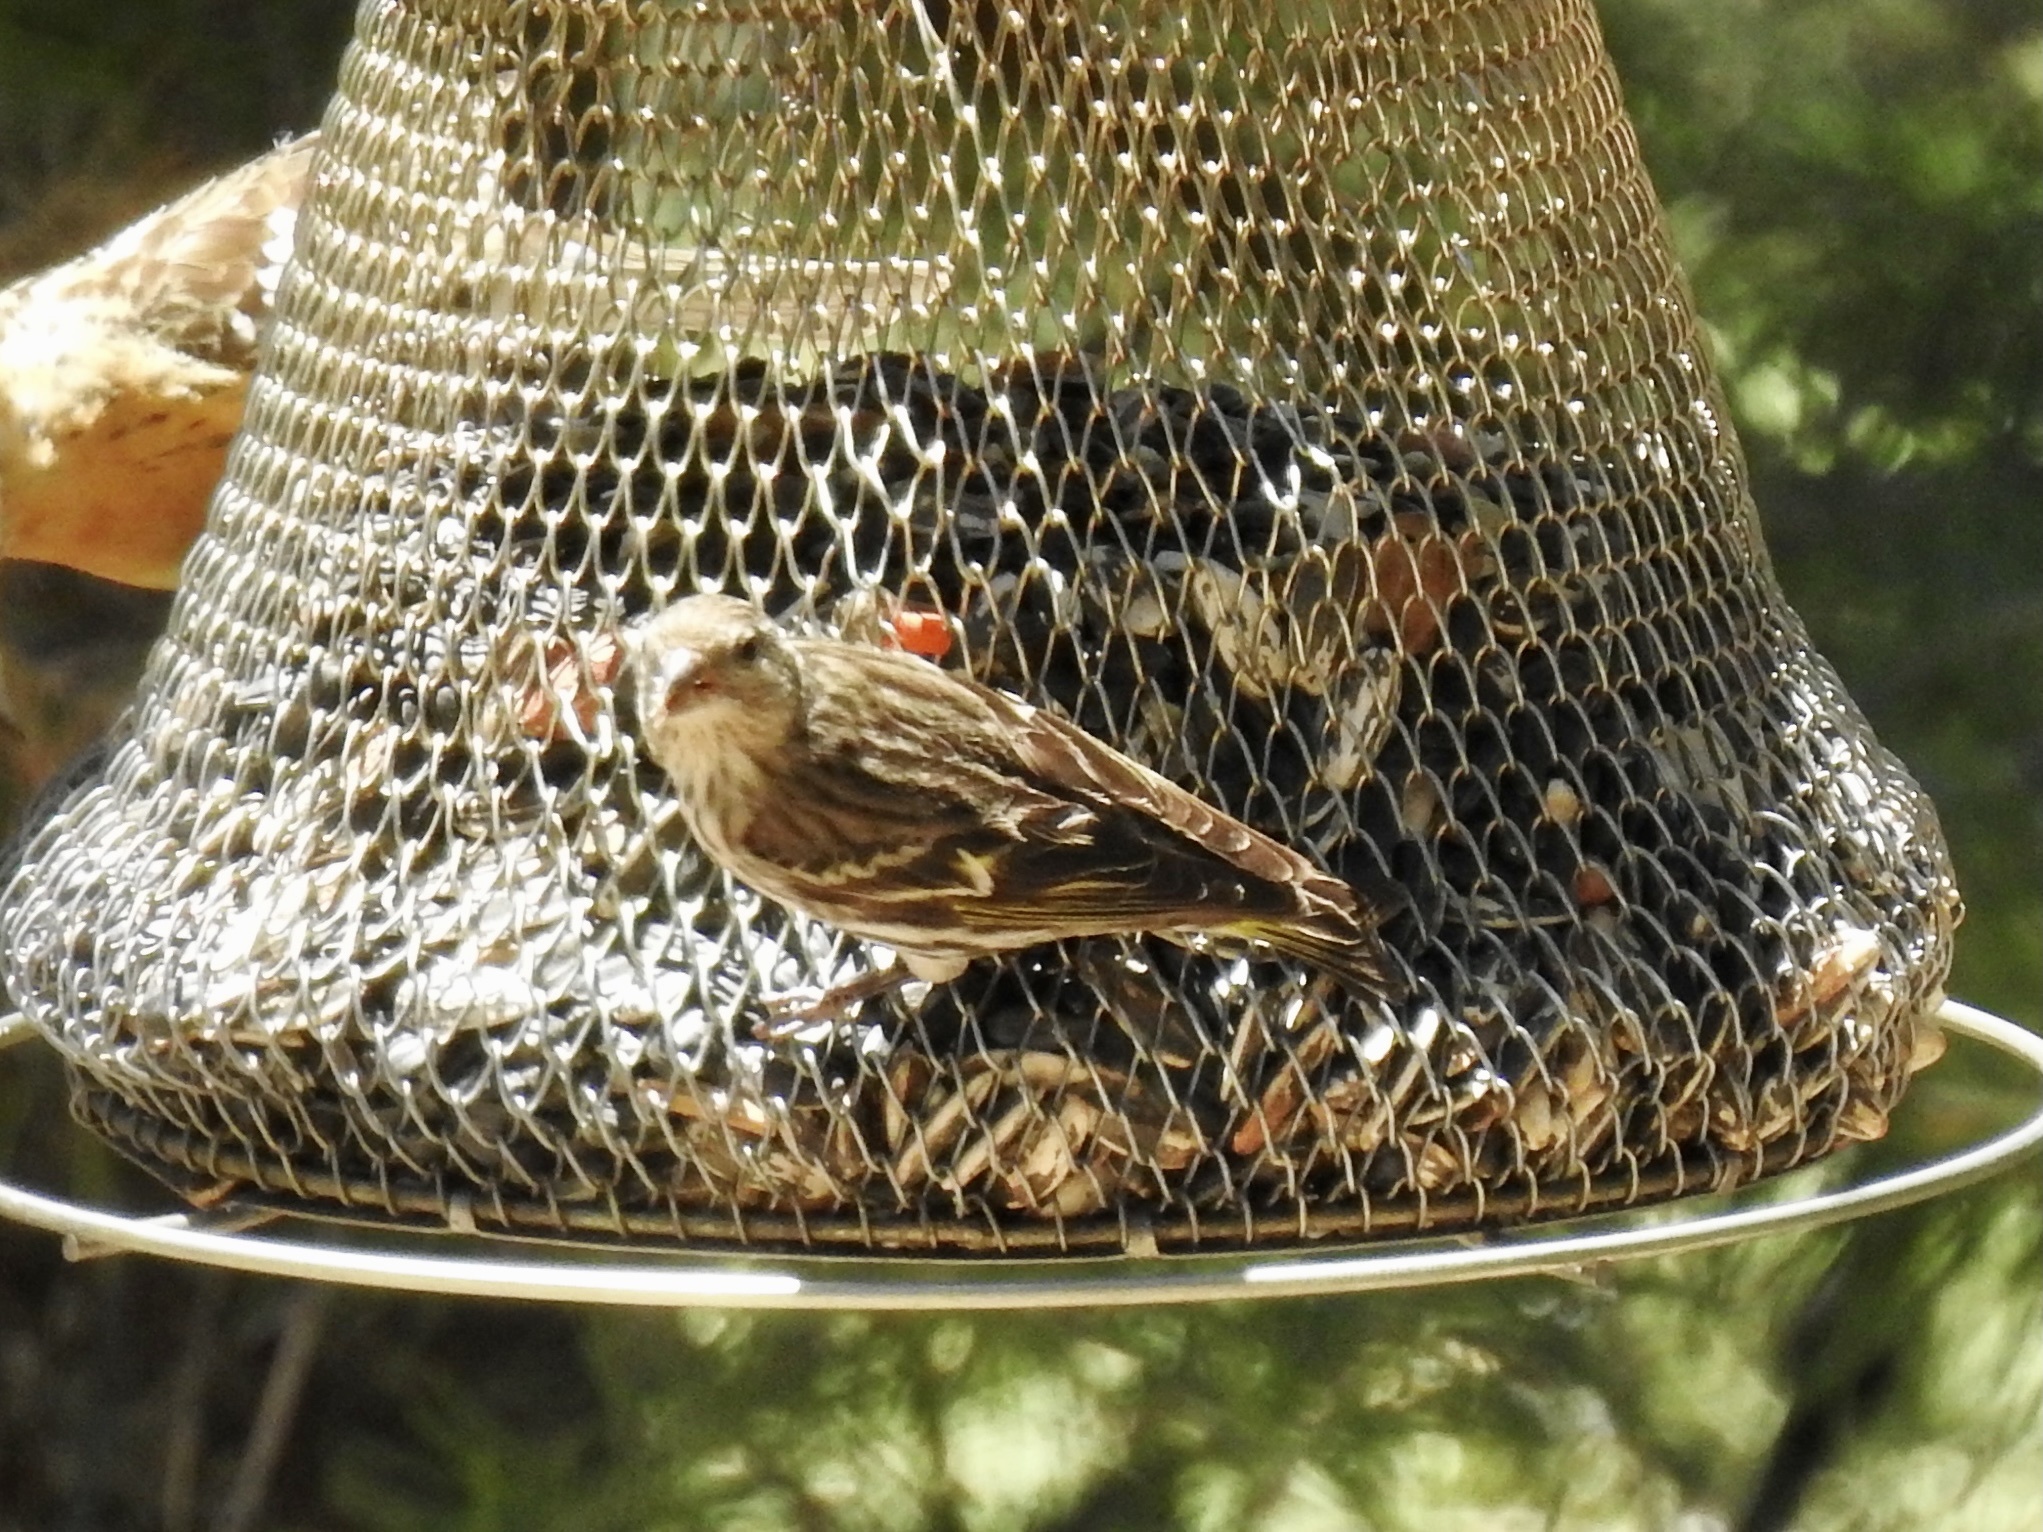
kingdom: Animalia
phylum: Chordata
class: Aves
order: Passeriformes
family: Fringillidae
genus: Spinus
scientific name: Spinus pinus
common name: Pine siskin
